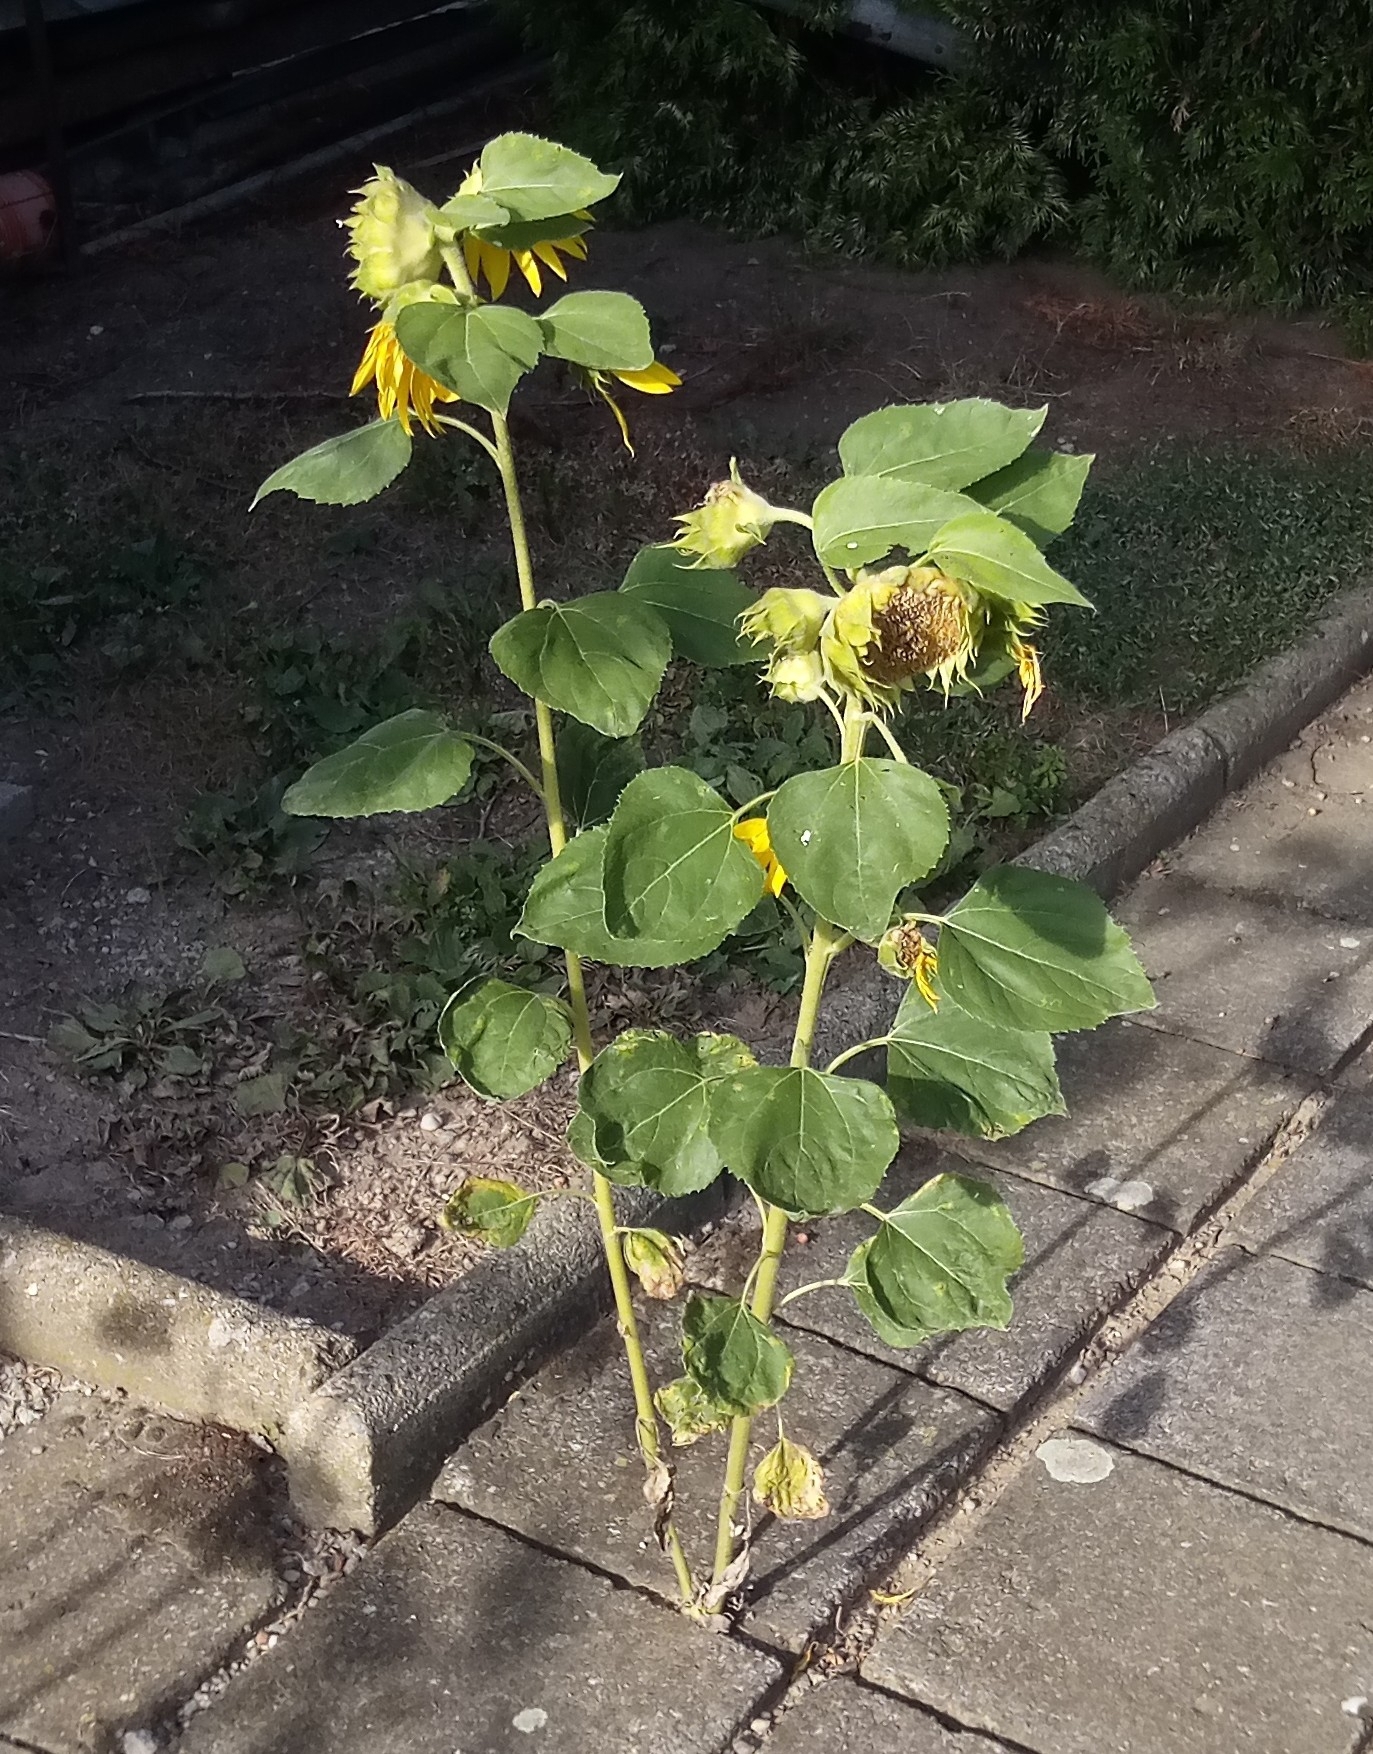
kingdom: Plantae
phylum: Tracheophyta
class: Magnoliopsida
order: Asterales
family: Asteraceae
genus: Helianthus
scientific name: Helianthus annuus
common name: Sunflower
